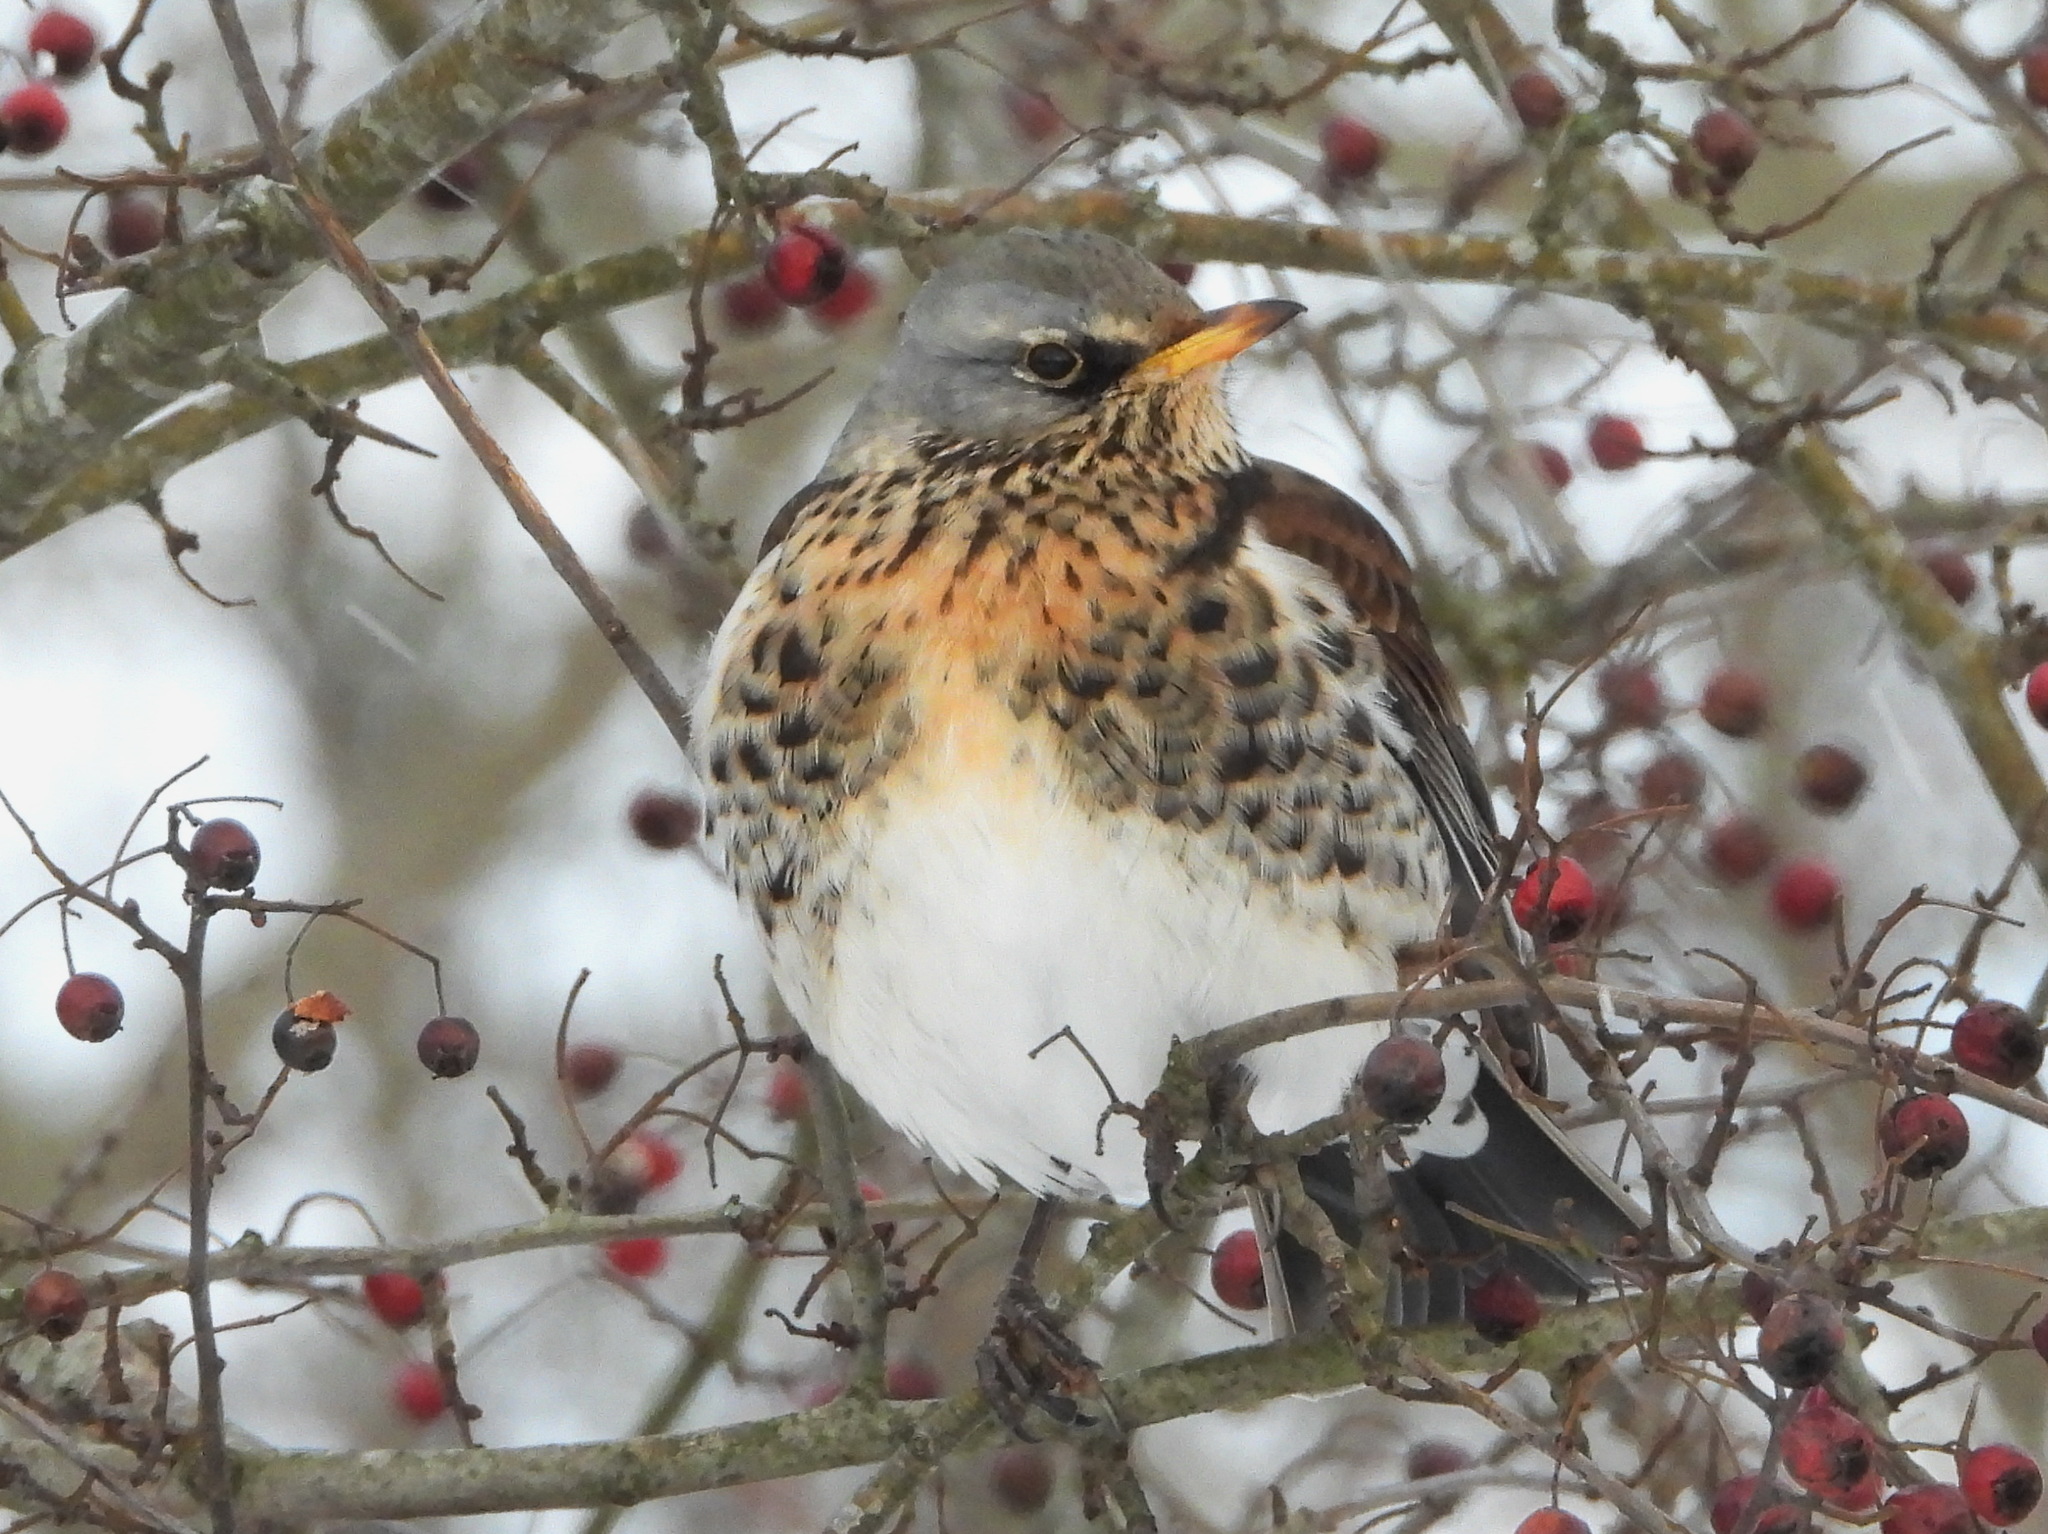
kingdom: Animalia
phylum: Chordata
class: Aves
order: Passeriformes
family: Turdidae
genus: Turdus
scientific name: Turdus pilaris
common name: Fieldfare
